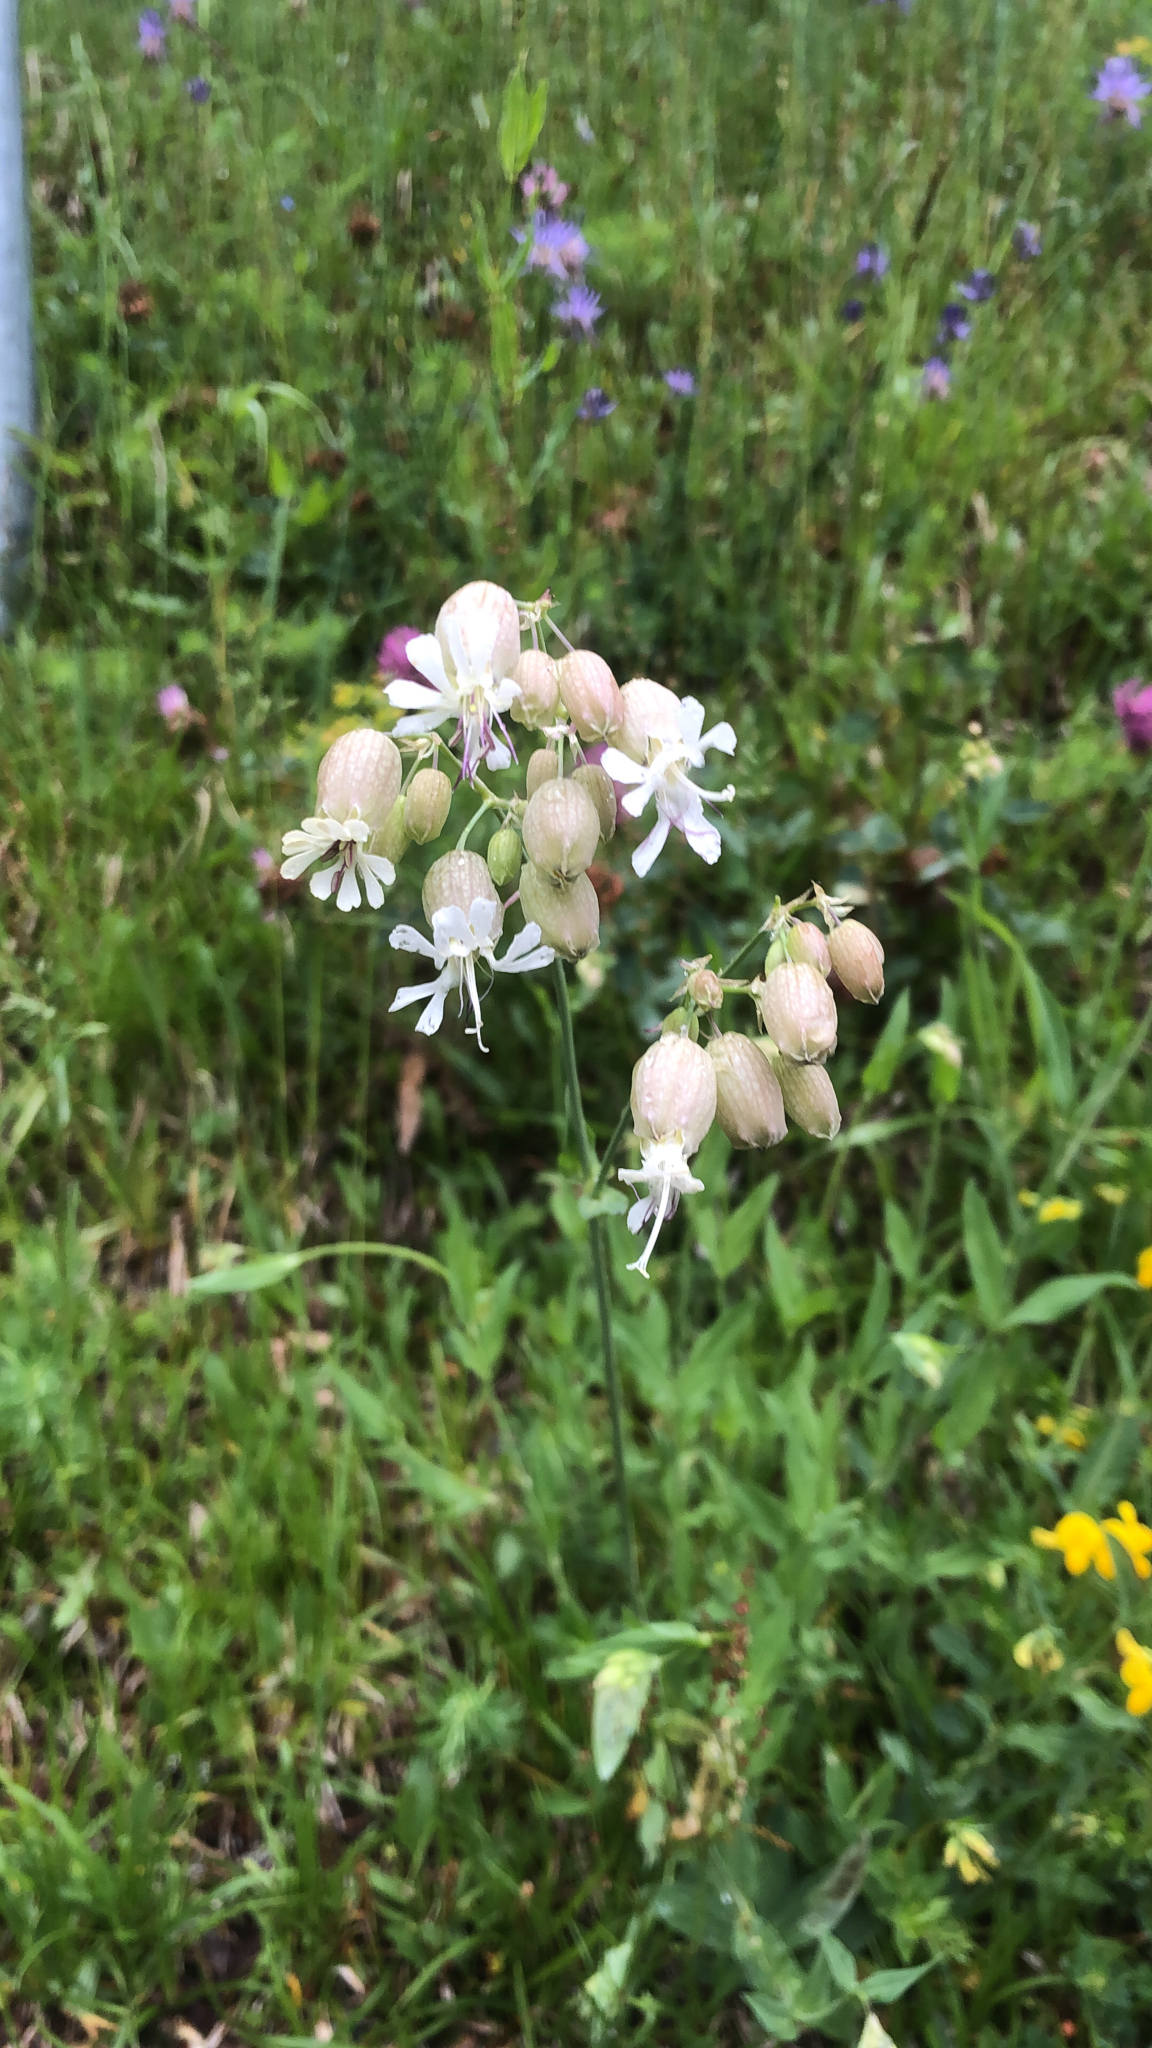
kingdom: Plantae
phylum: Tracheophyta
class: Magnoliopsida
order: Caryophyllales
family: Caryophyllaceae
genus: Silene
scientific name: Silene vulgaris
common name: Bladder campion
